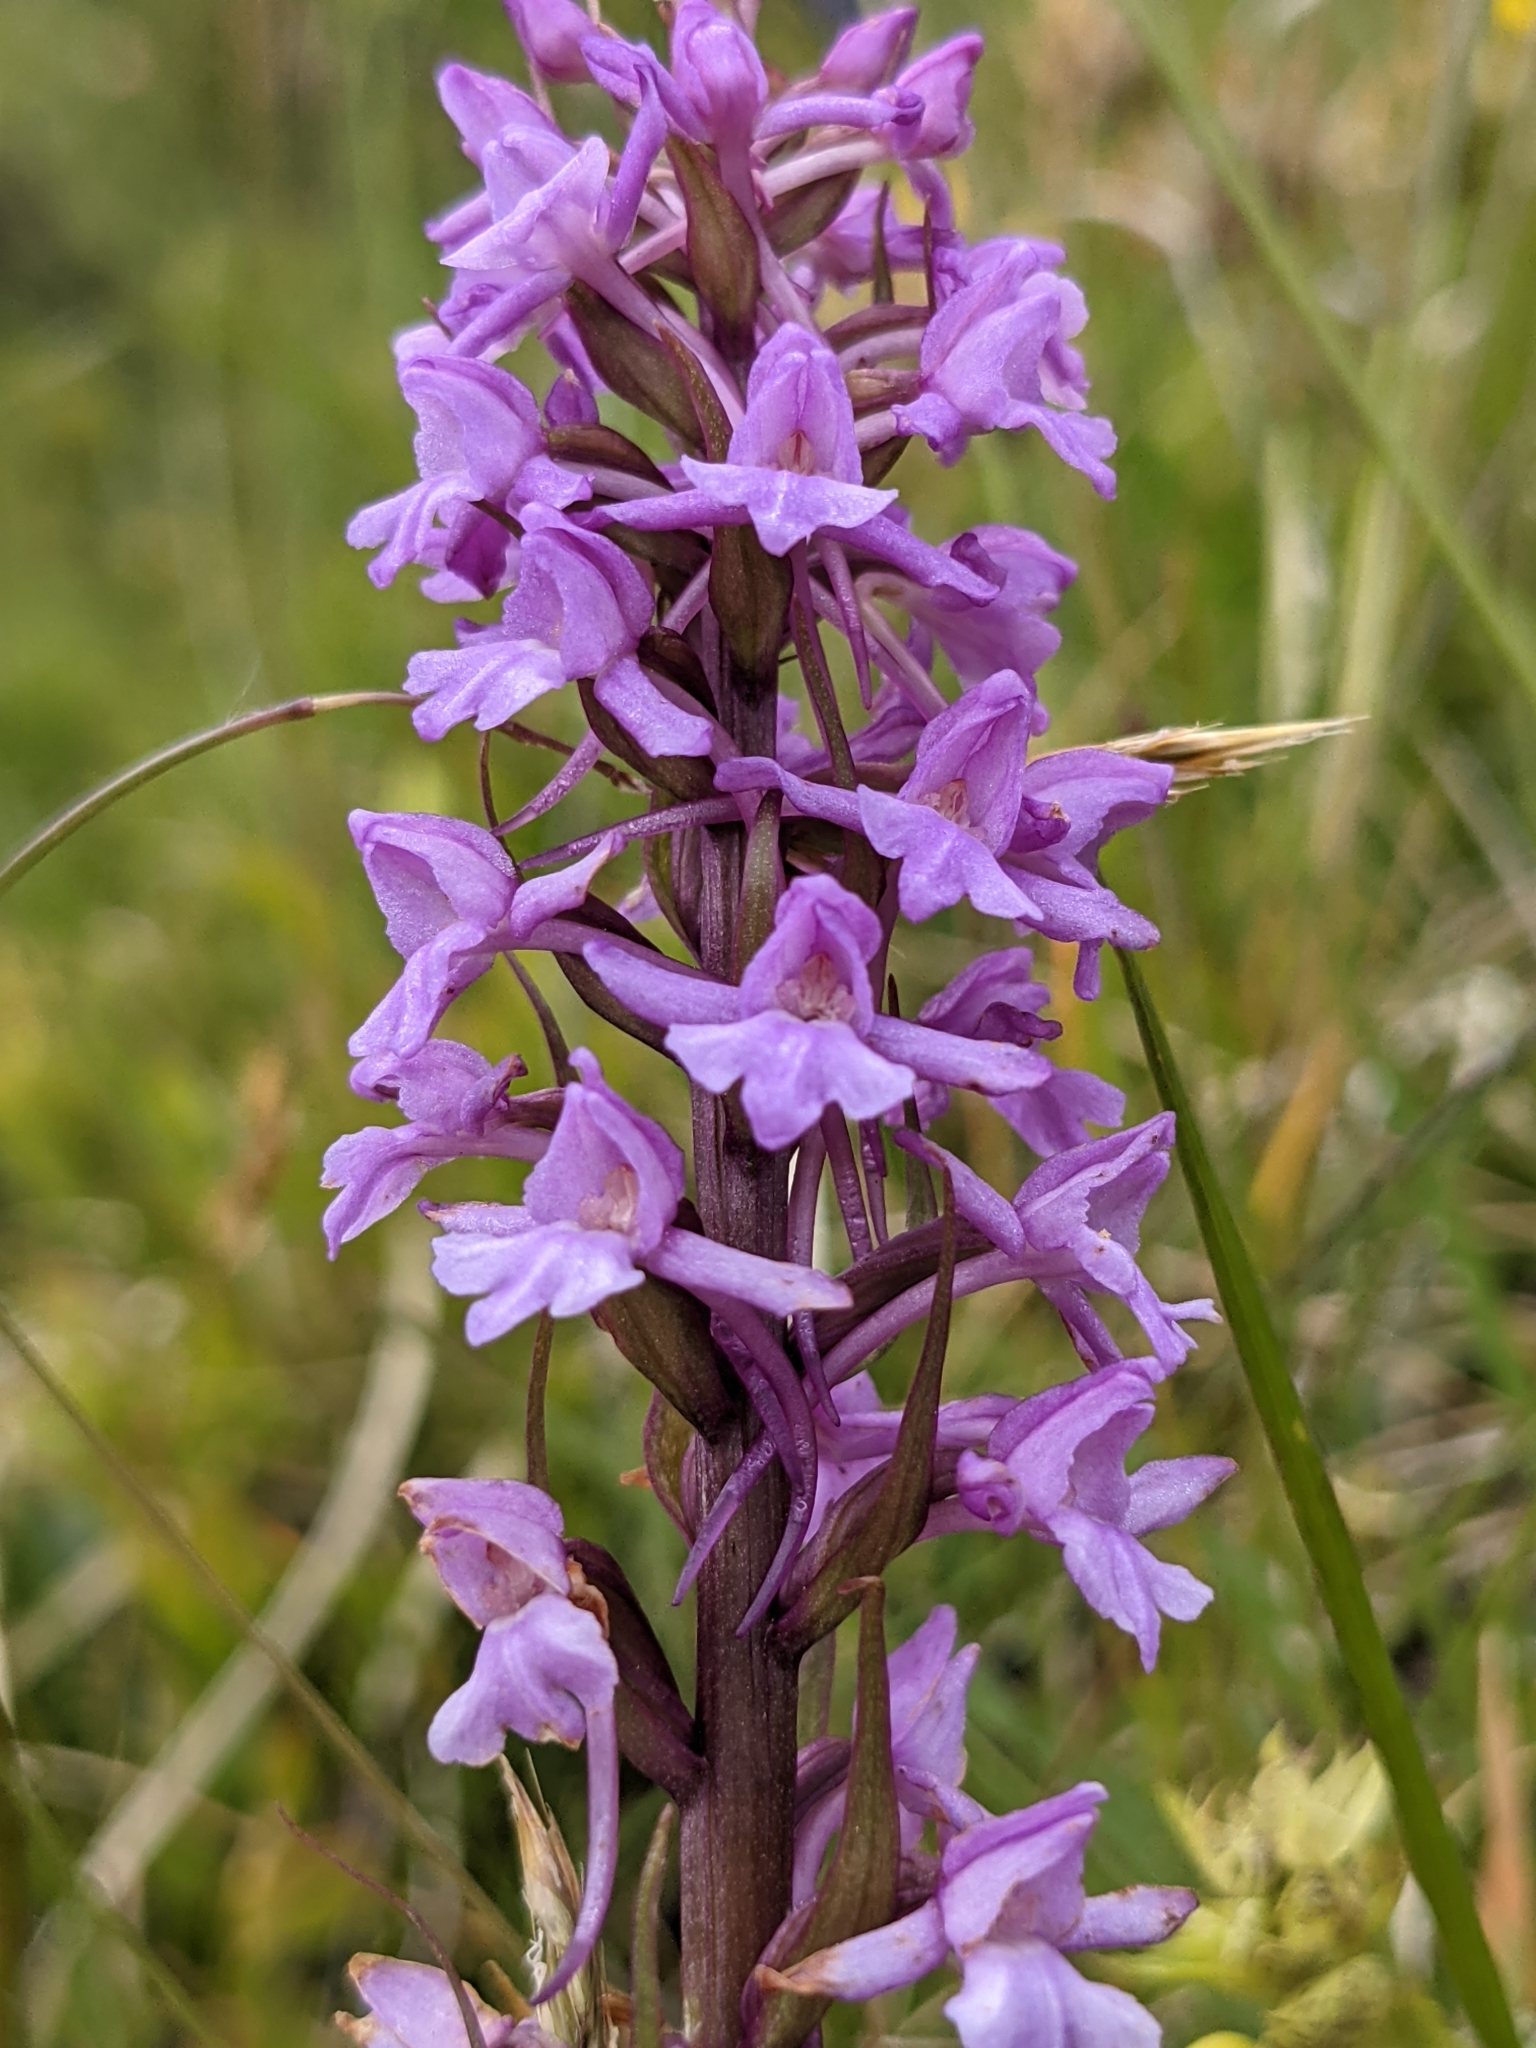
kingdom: Plantae
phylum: Tracheophyta
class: Liliopsida
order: Asparagales
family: Orchidaceae
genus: Gymnadenia
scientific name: Gymnadenia conopsea
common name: Fragrant orchid
